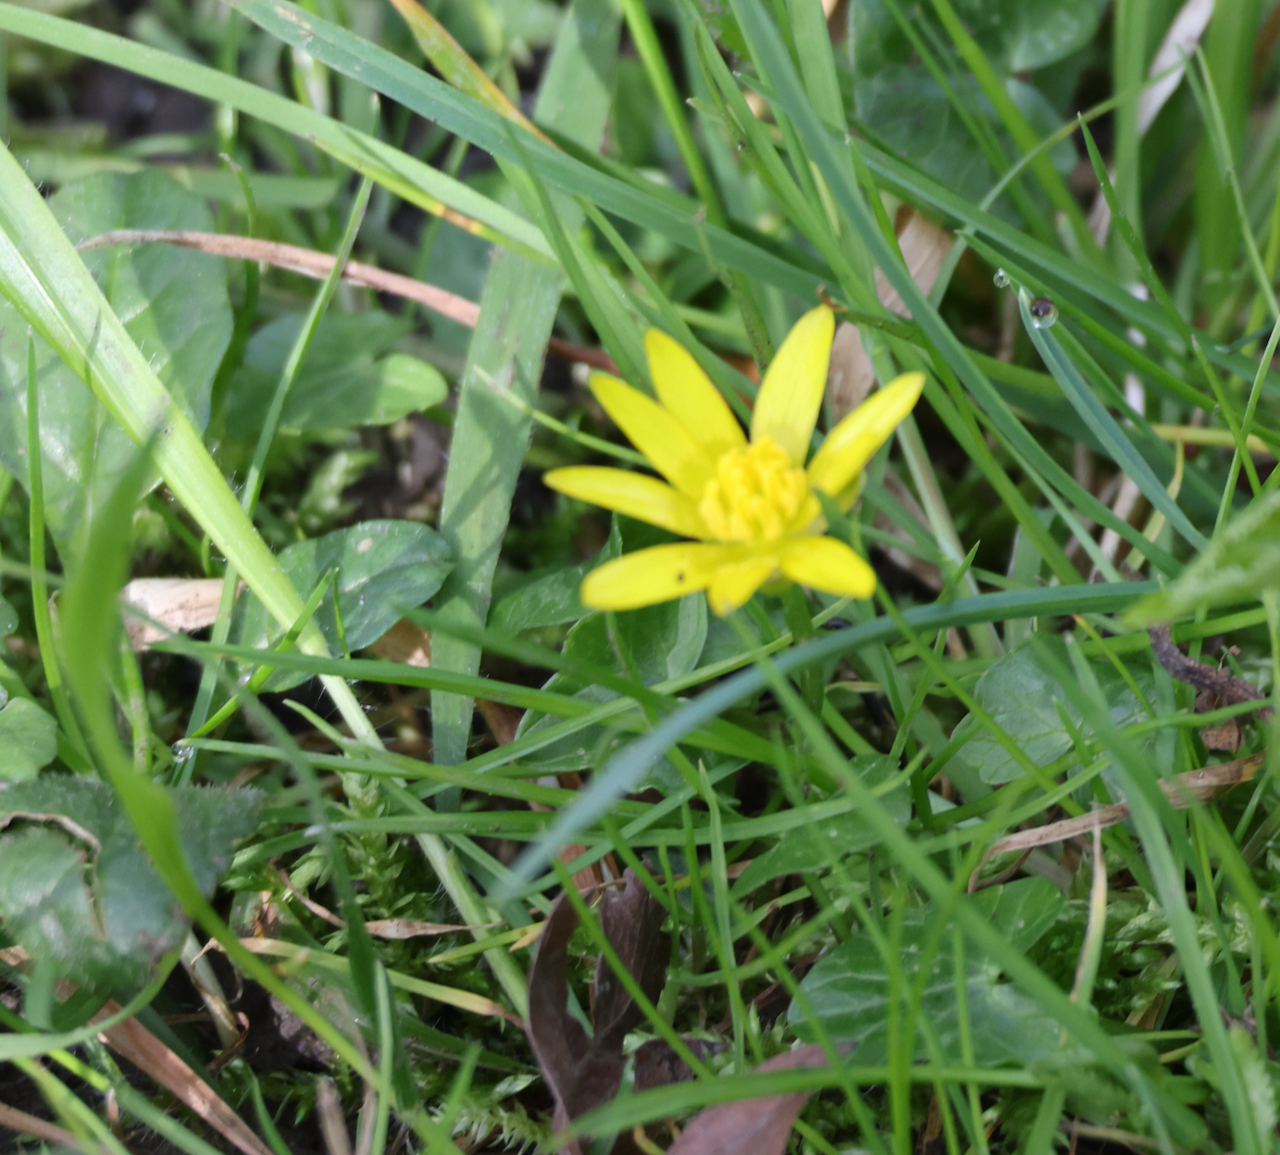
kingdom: Plantae
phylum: Tracheophyta
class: Magnoliopsida
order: Ranunculales
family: Ranunculaceae
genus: Ficaria
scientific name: Ficaria verna
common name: Lesser celandine
